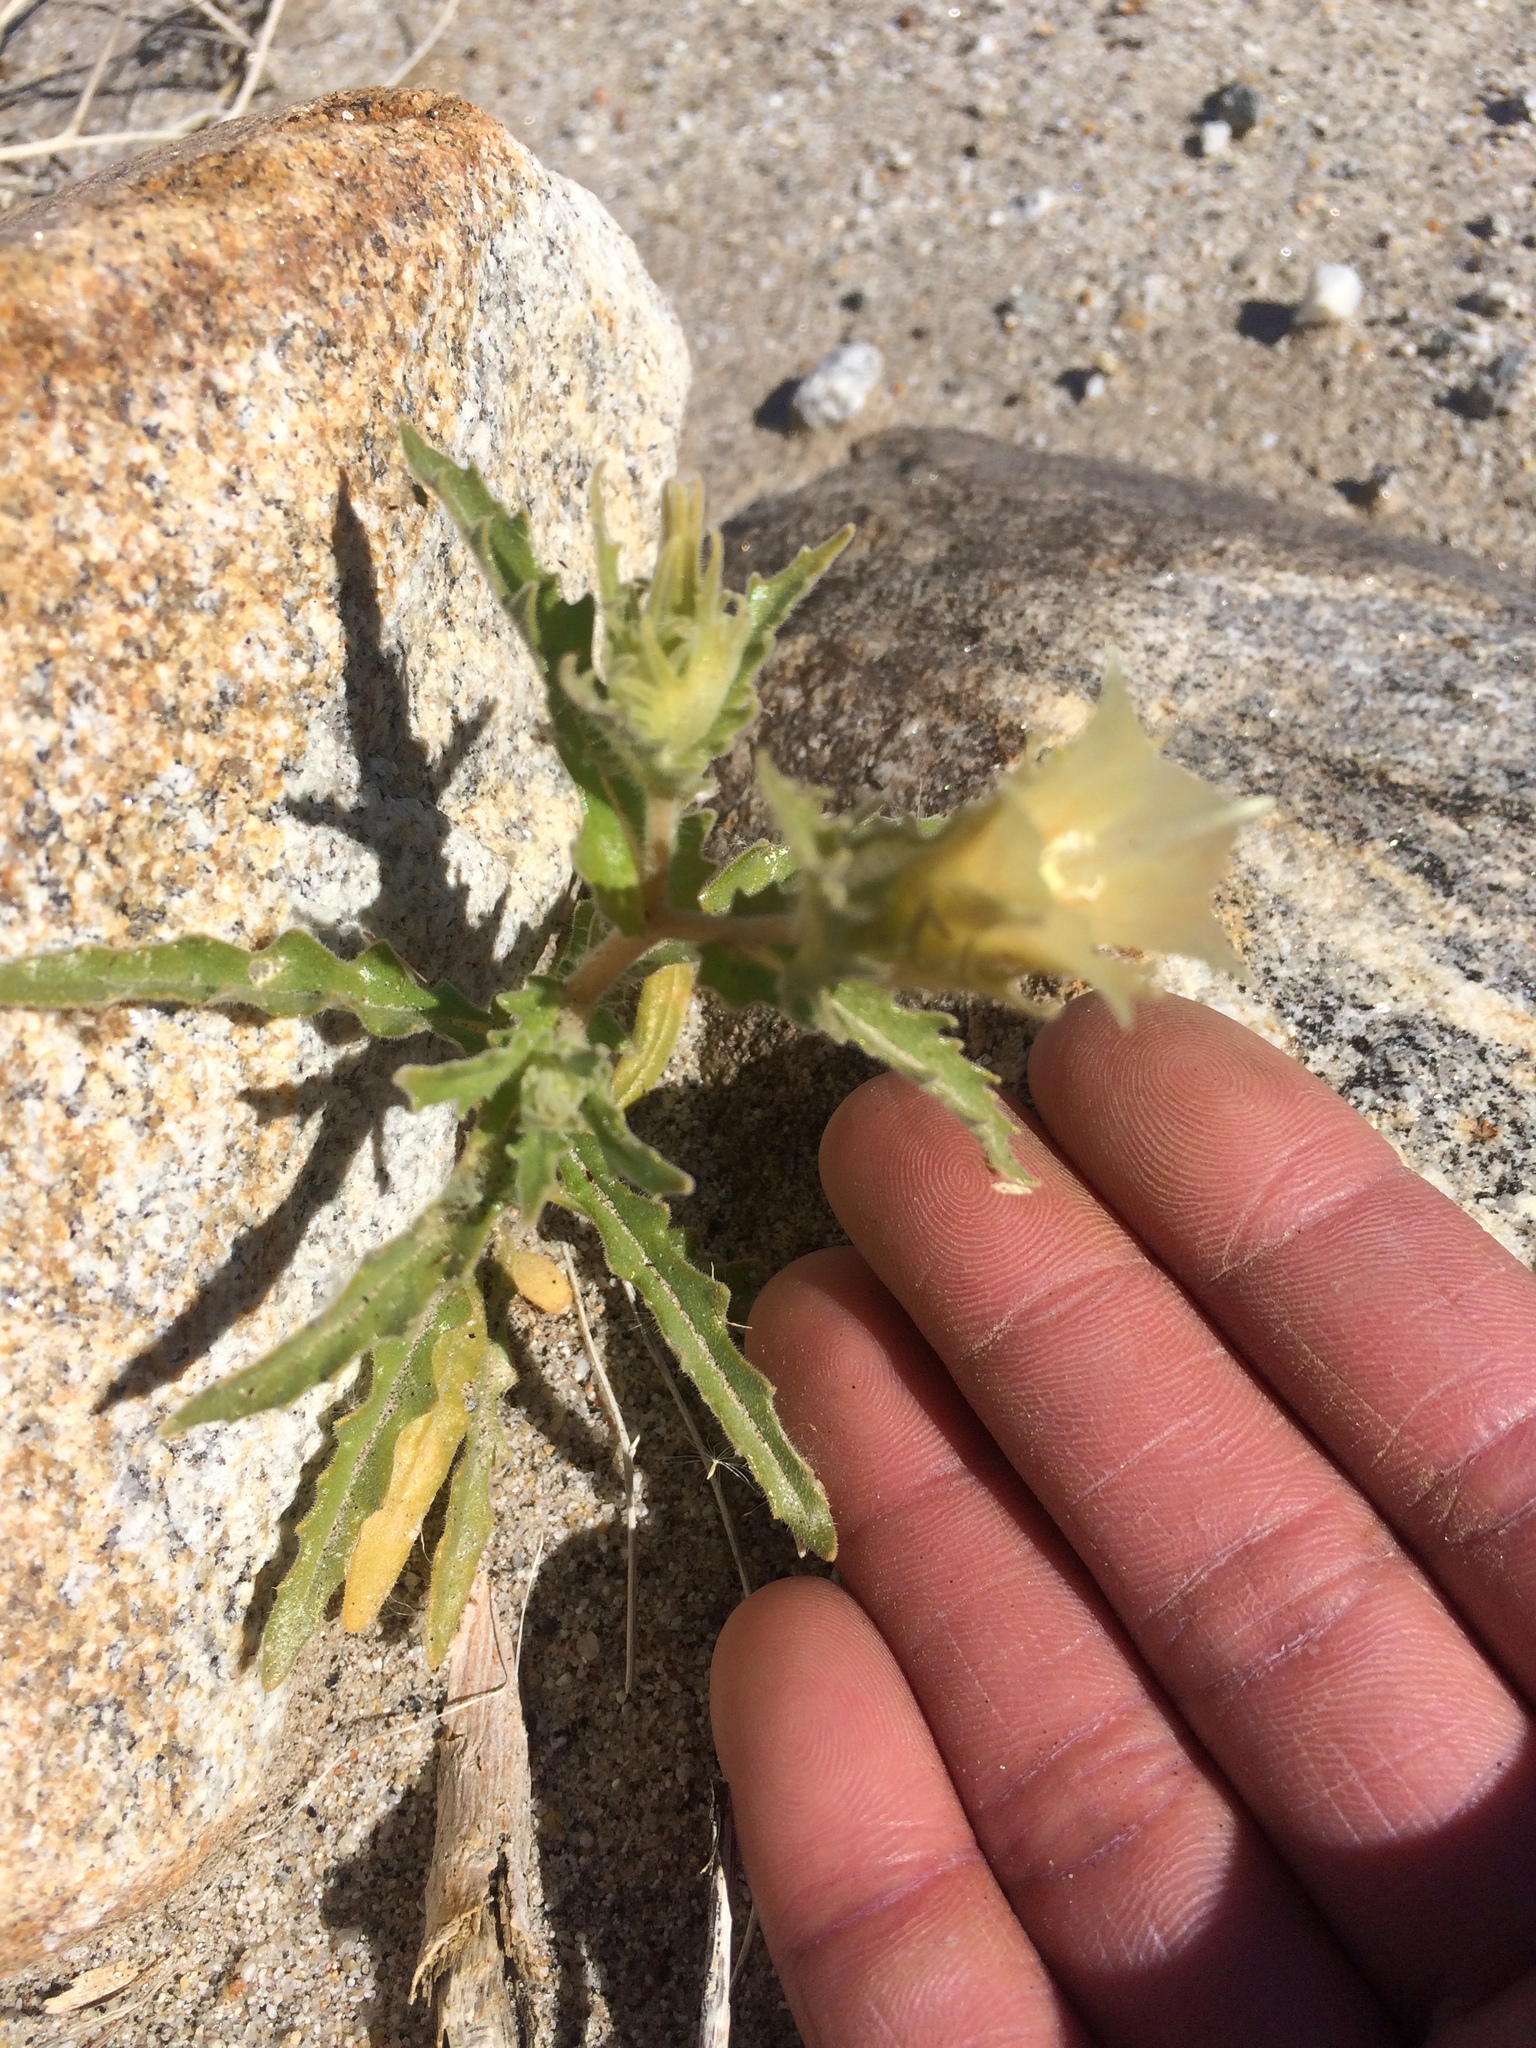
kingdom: Plantae
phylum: Tracheophyta
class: Magnoliopsida
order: Cornales
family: Loasaceae
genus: Mentzelia
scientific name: Mentzelia involucrata
